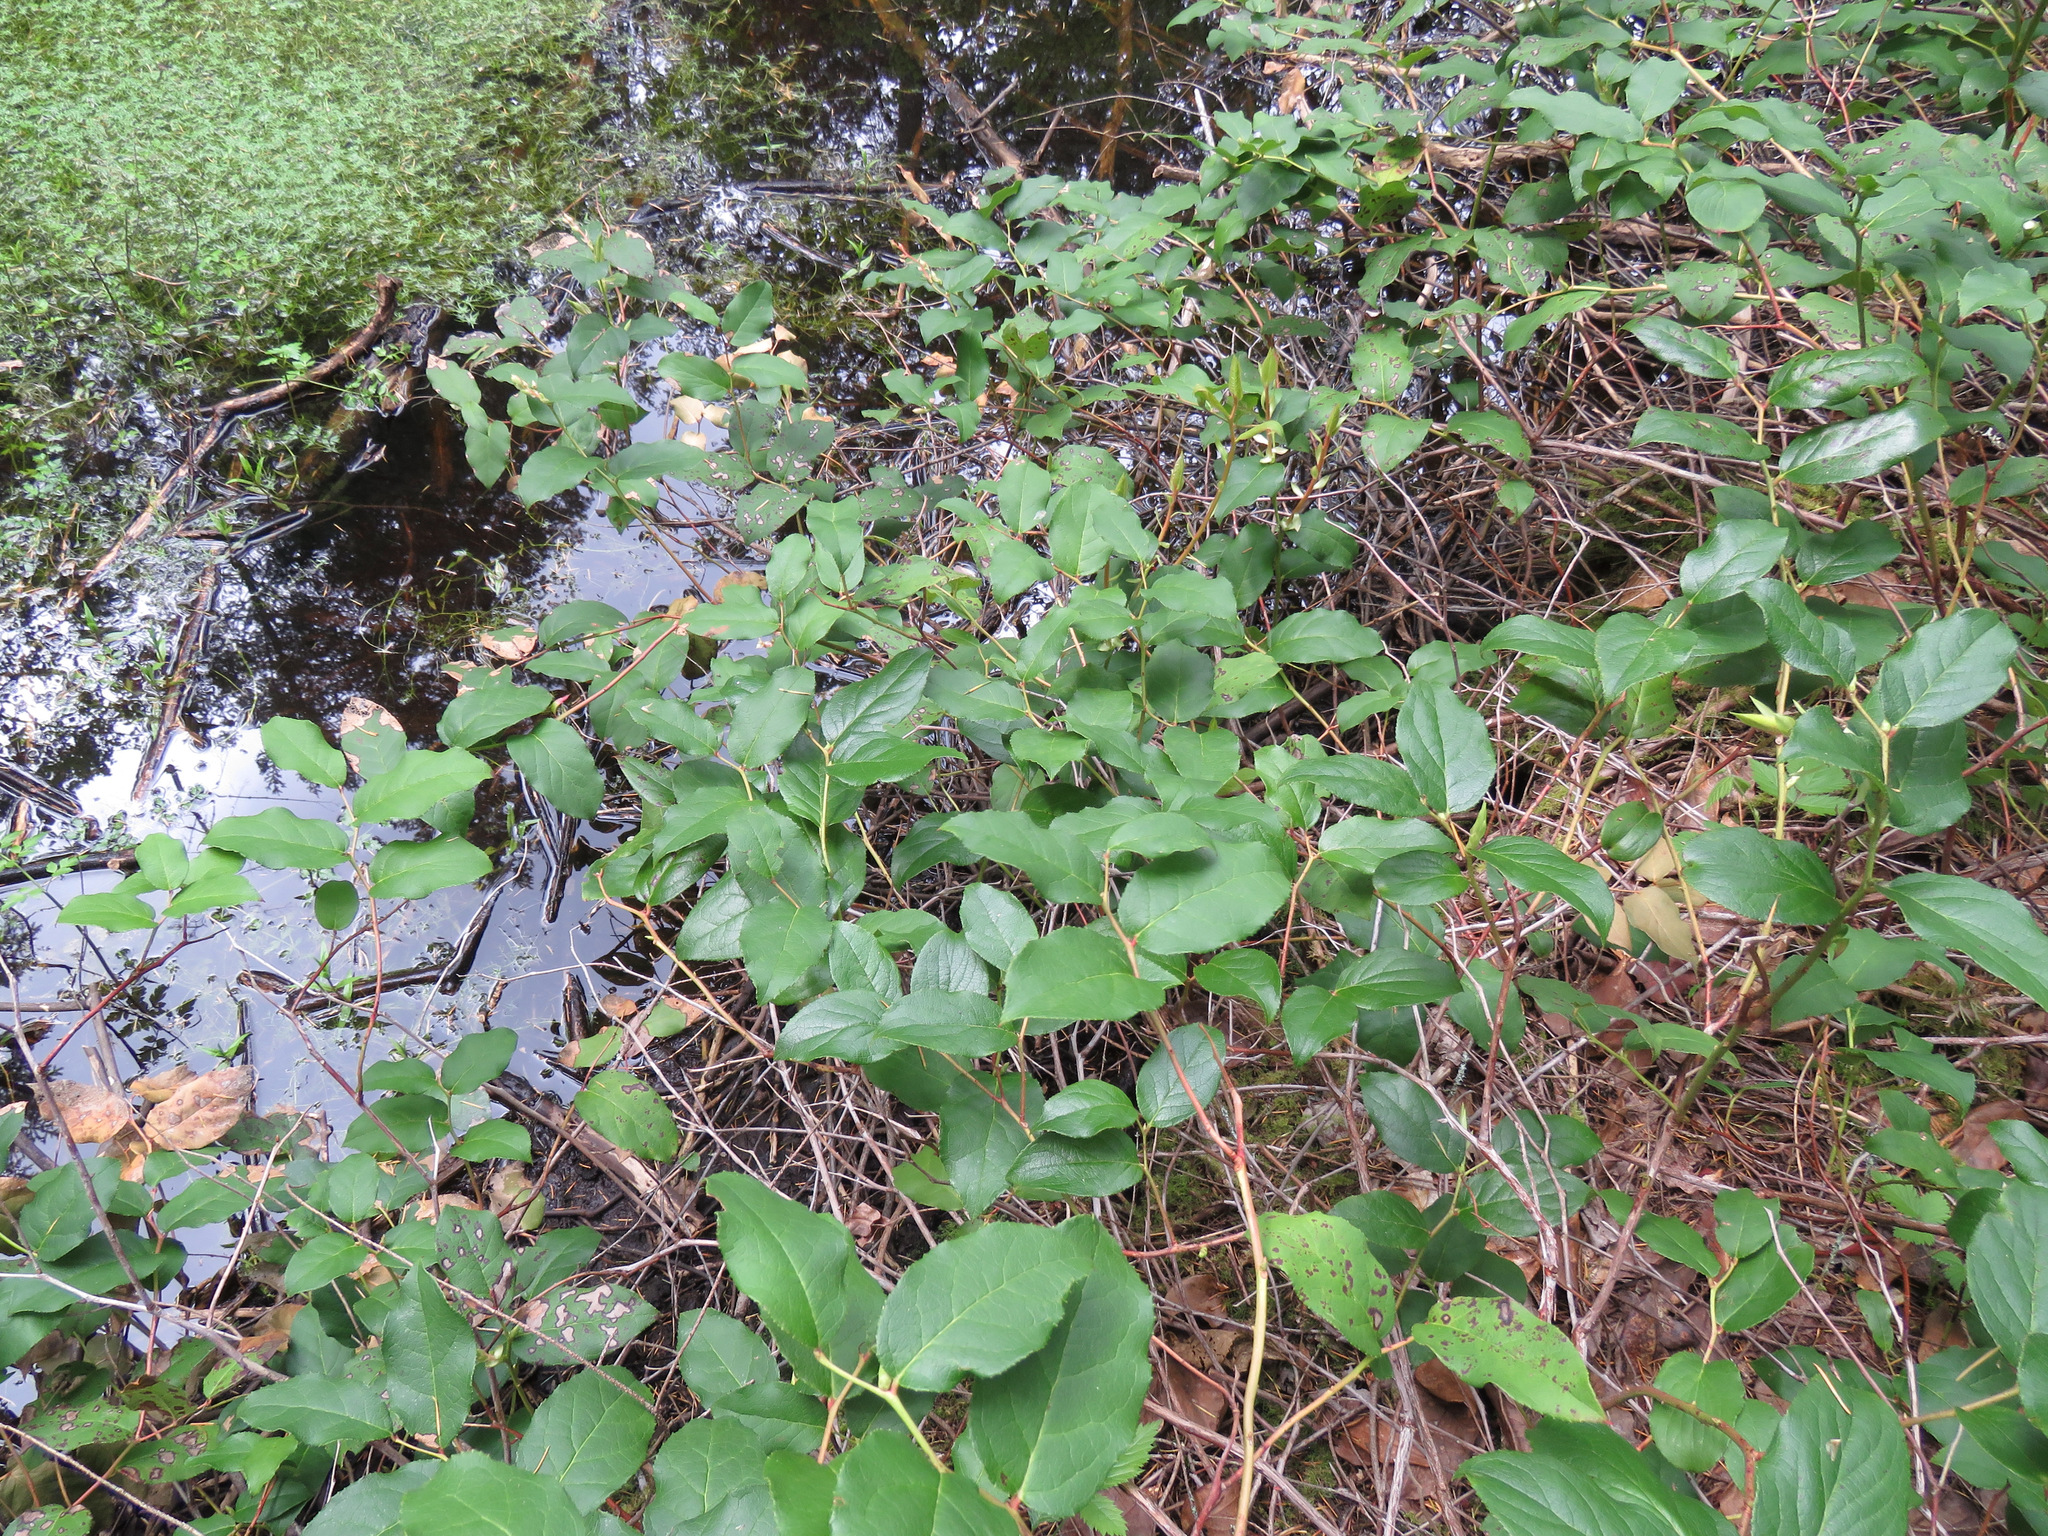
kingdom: Plantae
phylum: Tracheophyta
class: Magnoliopsida
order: Ericales
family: Ericaceae
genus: Gaultheria
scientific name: Gaultheria shallon
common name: Shallon
